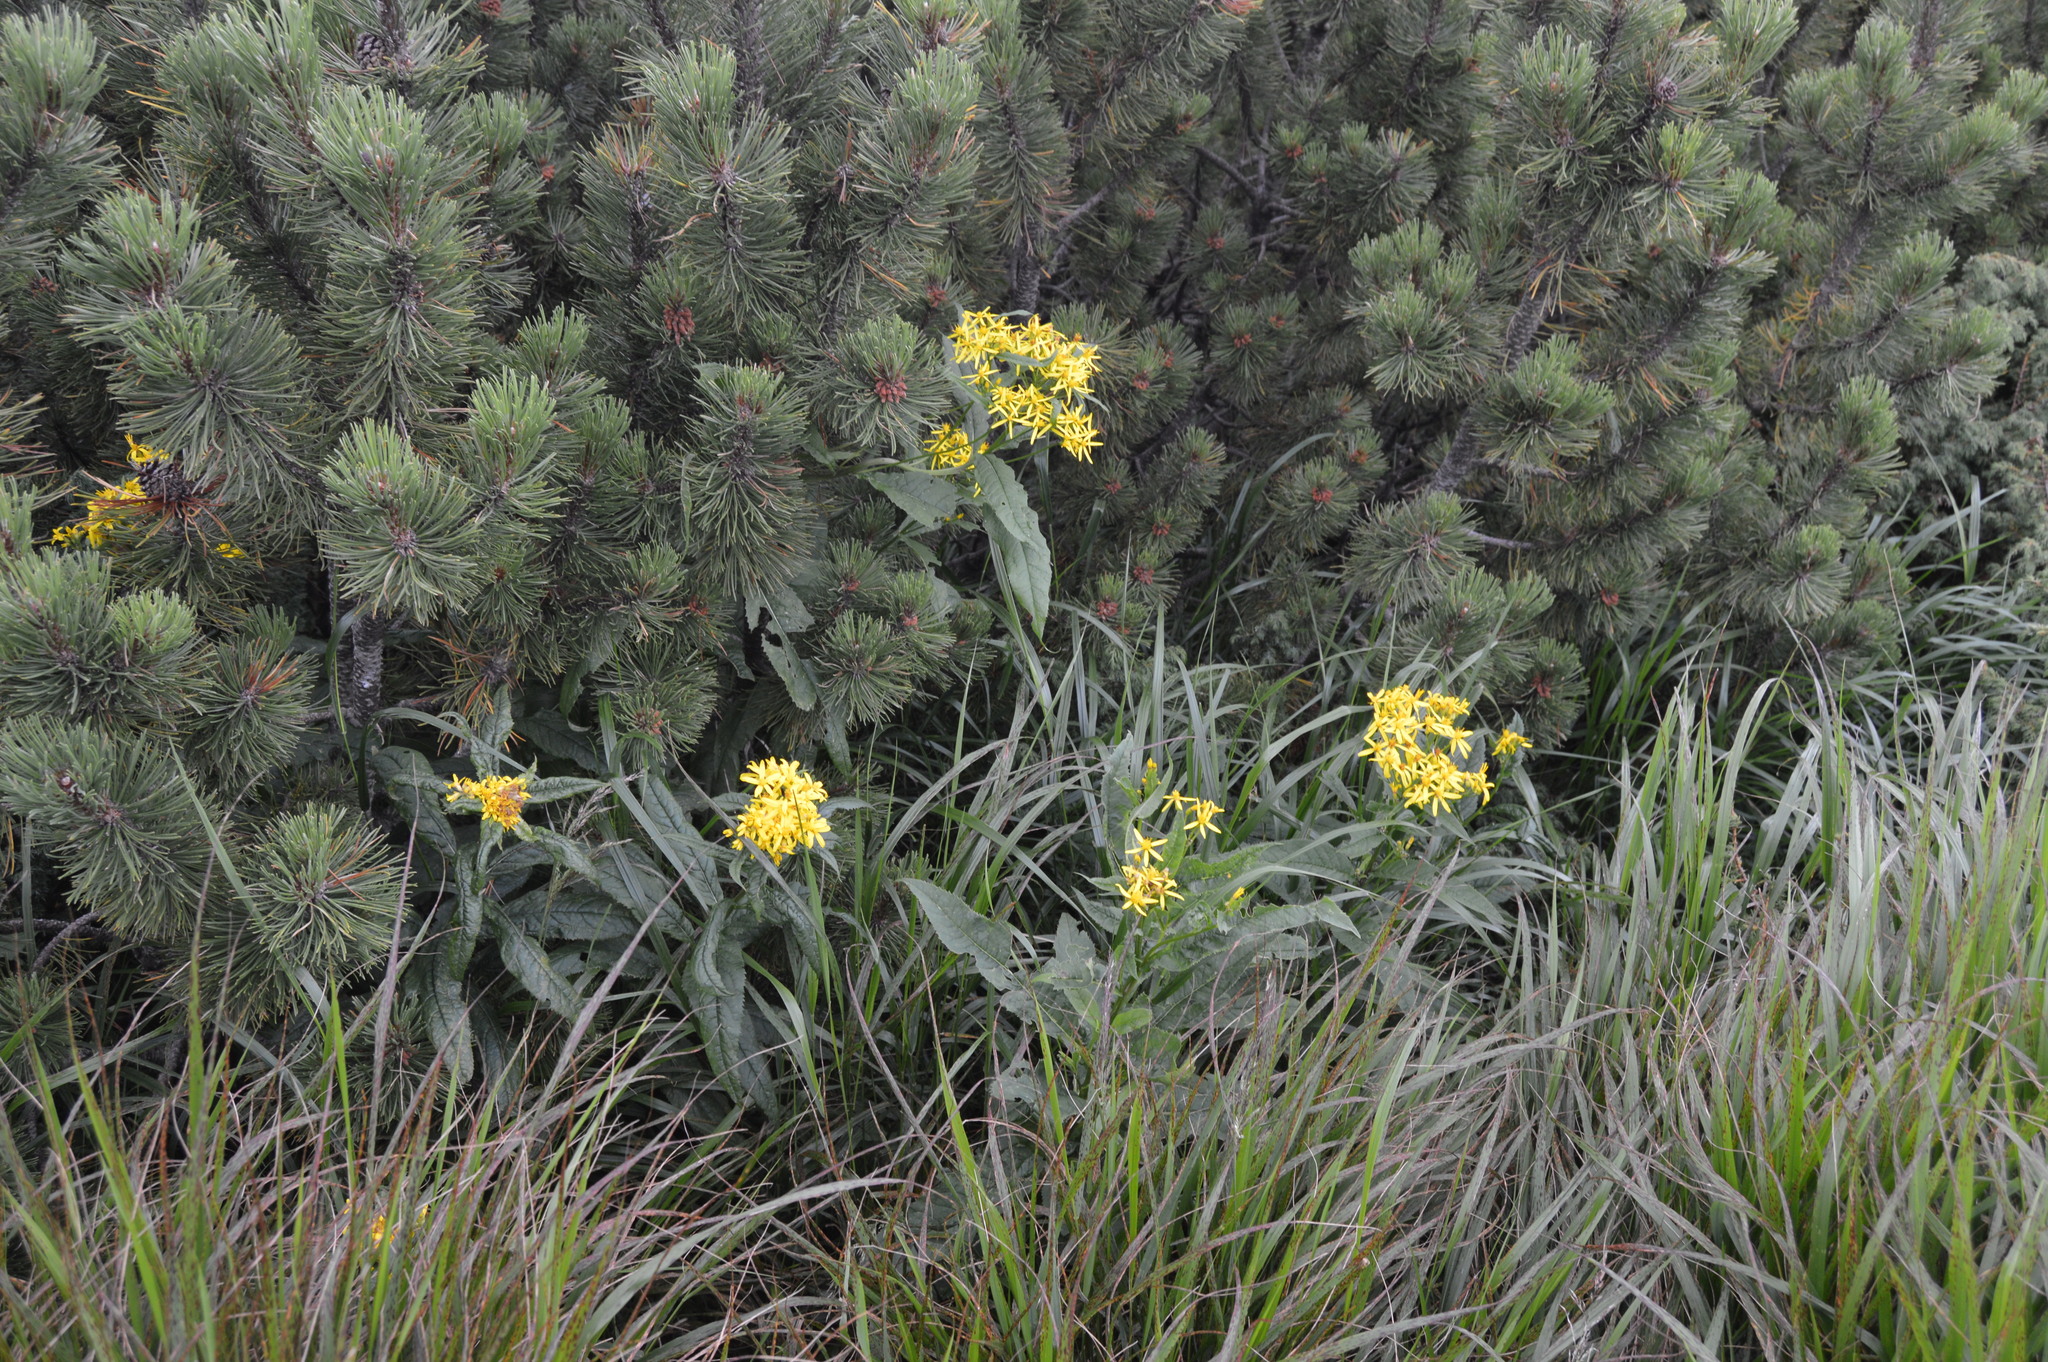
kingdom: Plantae
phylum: Tracheophyta
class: Magnoliopsida
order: Asterales
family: Asteraceae
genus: Senecio
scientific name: Senecio ovatus
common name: Wood ragwort
